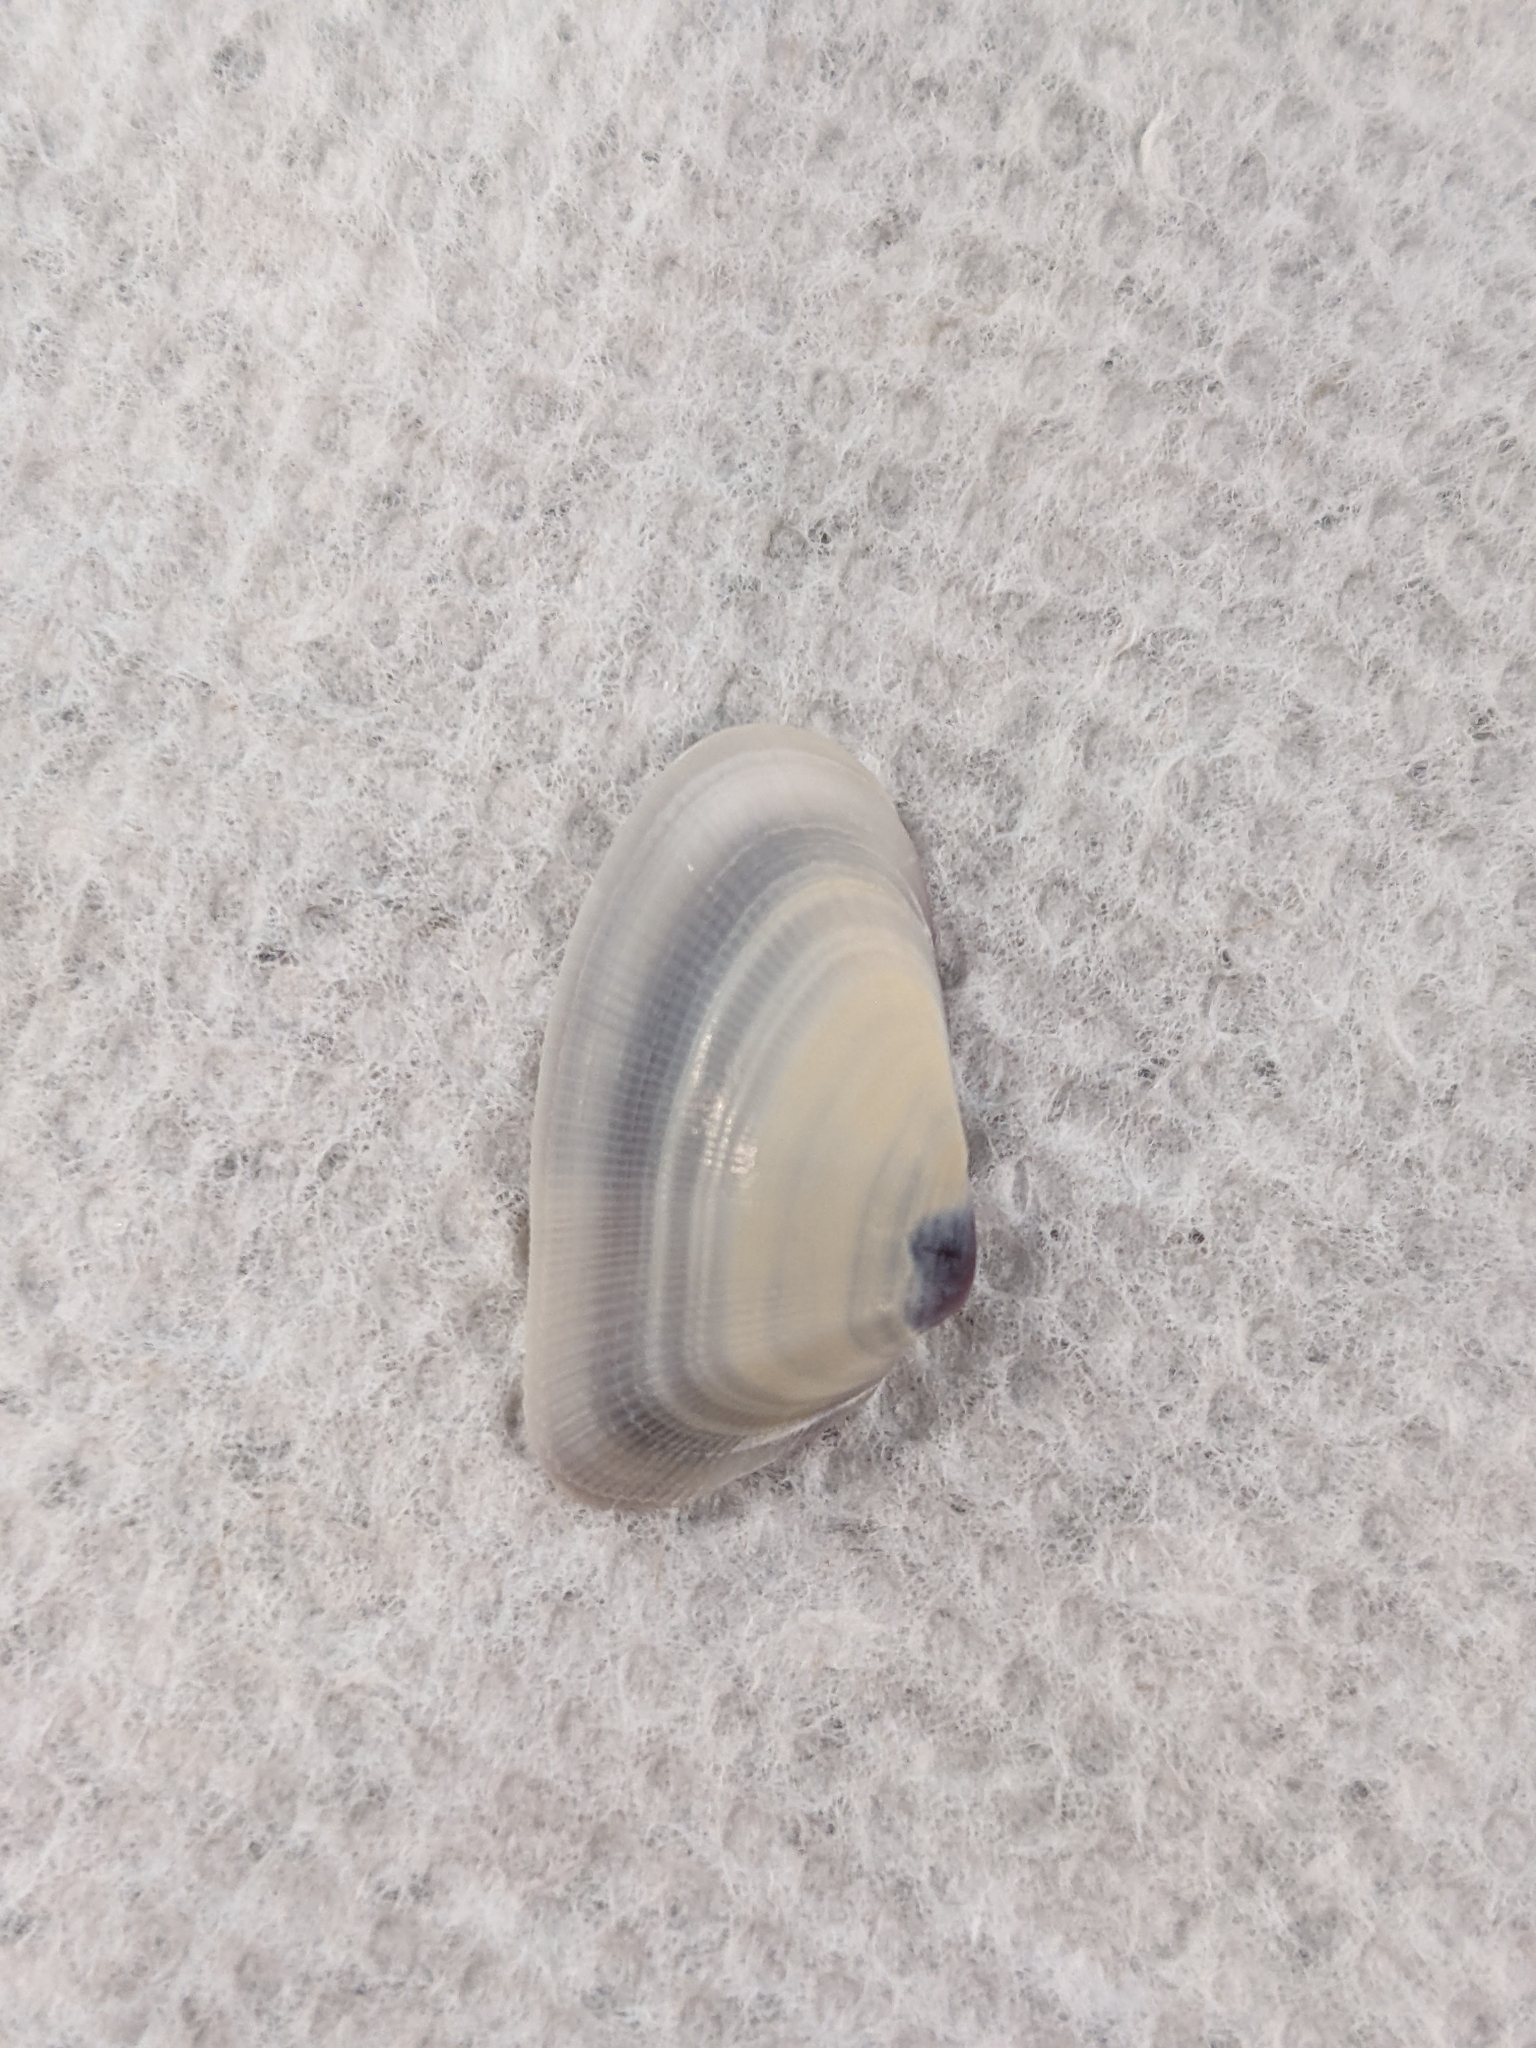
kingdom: Animalia
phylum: Mollusca
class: Bivalvia
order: Cardiida
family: Donacidae
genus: Donax
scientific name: Donax variabilis
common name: Butterfly shell
